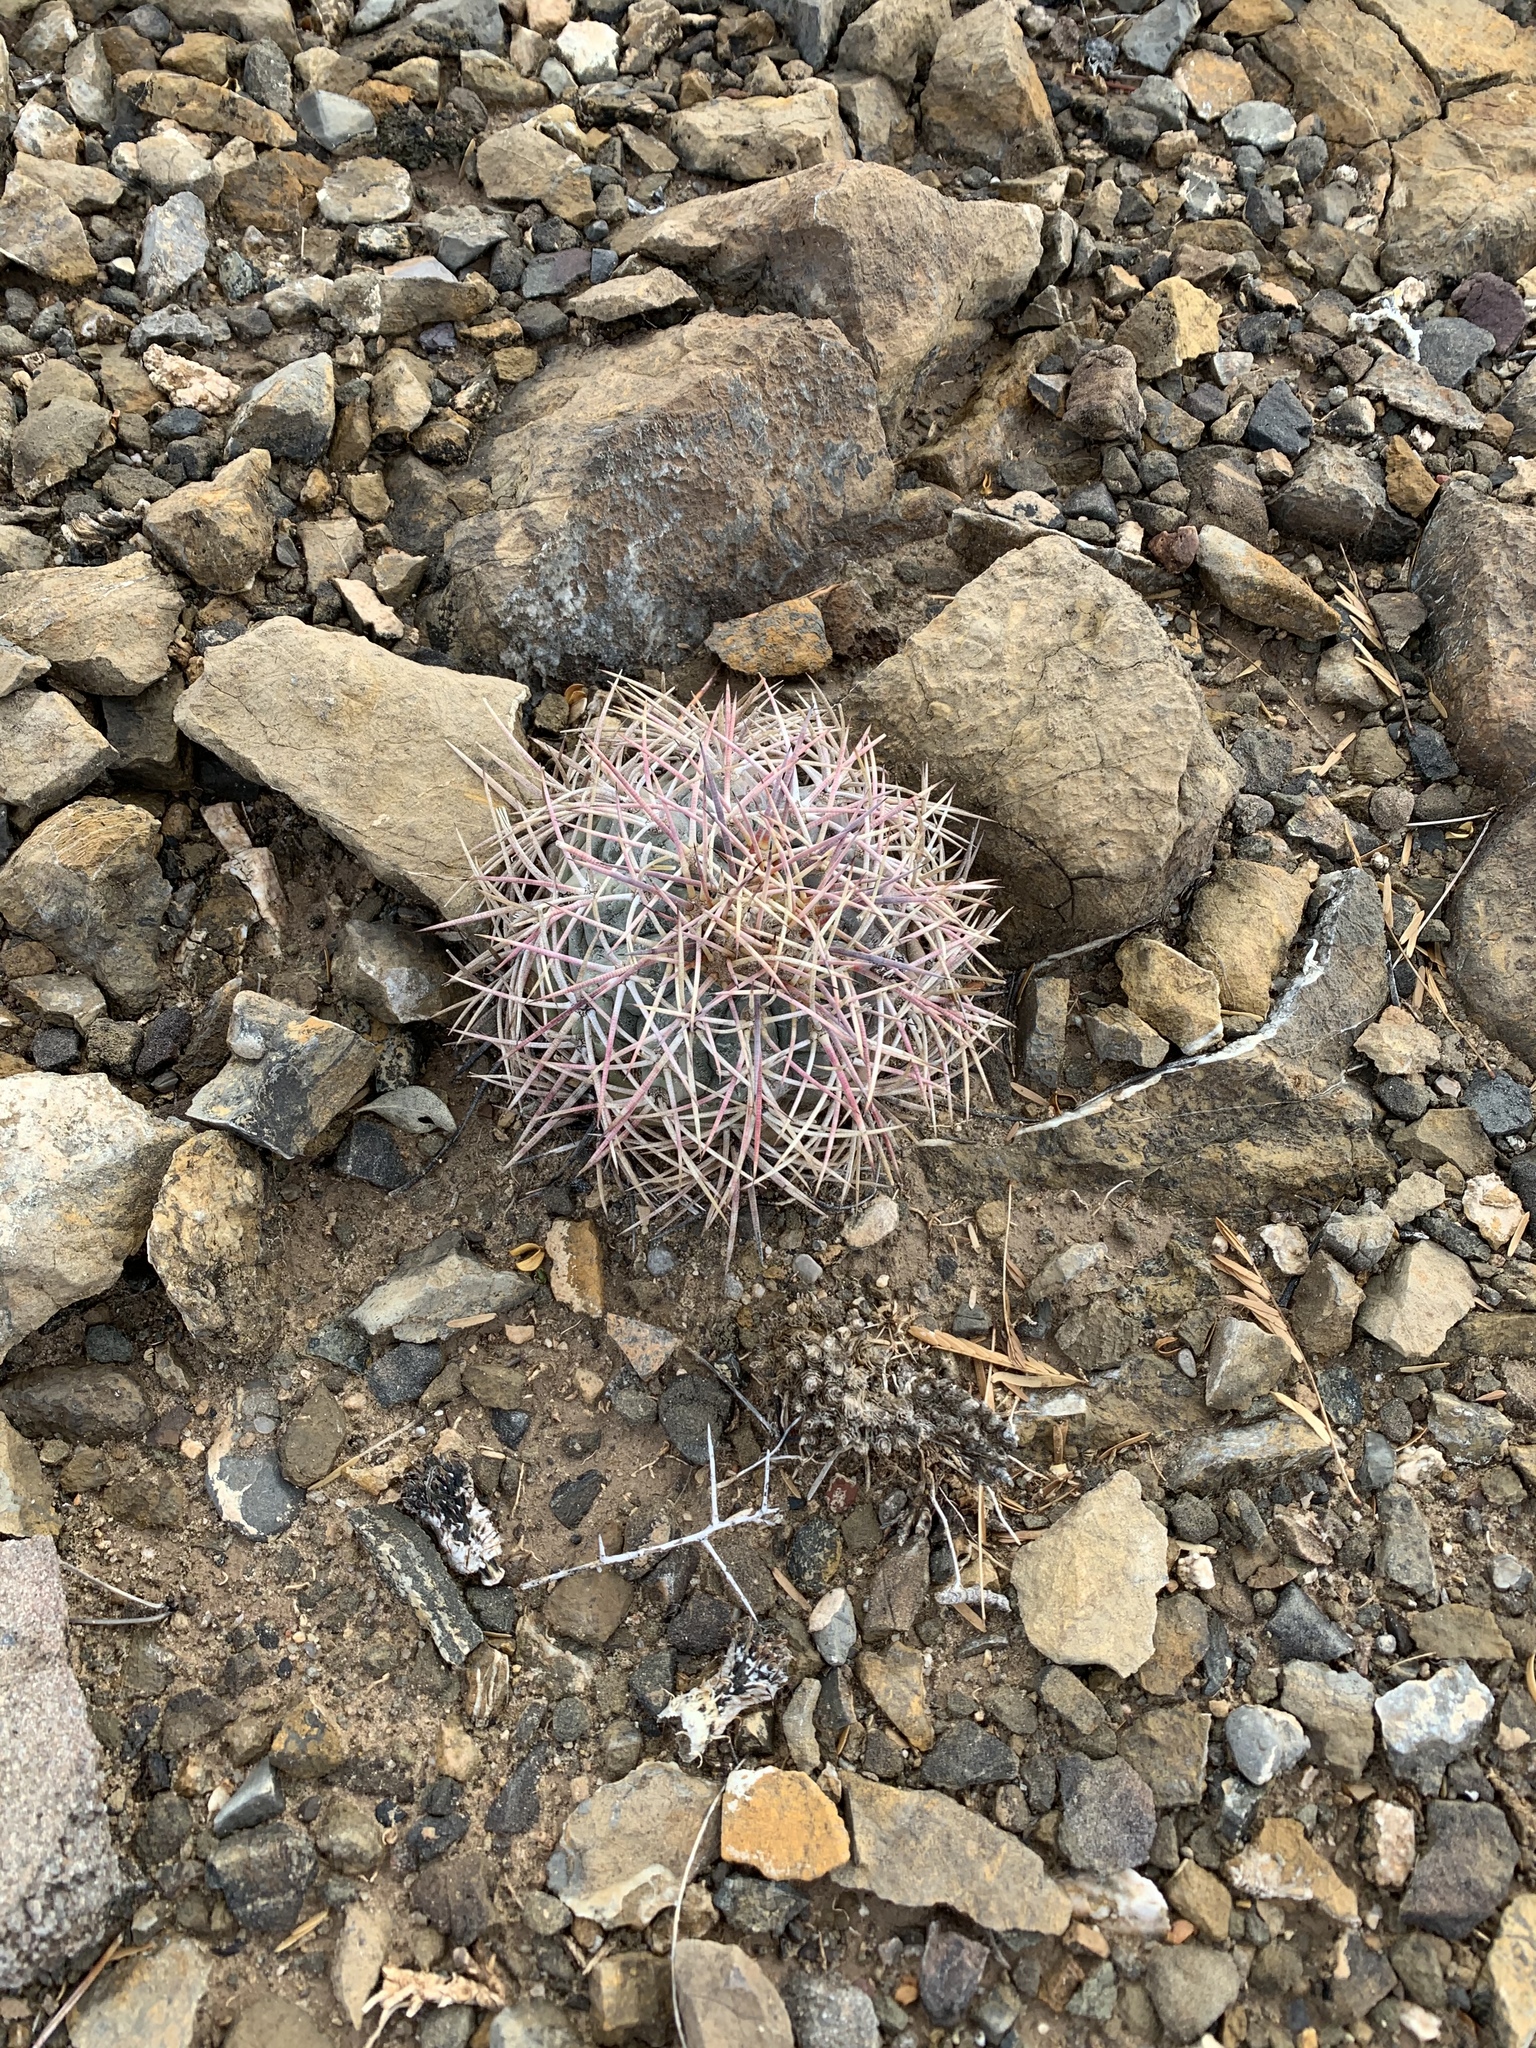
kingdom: Plantae
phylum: Tracheophyta
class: Magnoliopsida
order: Caryophyllales
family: Cactaceae
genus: Echinocactus
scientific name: Echinocactus horizonthalonius
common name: Devilshead
